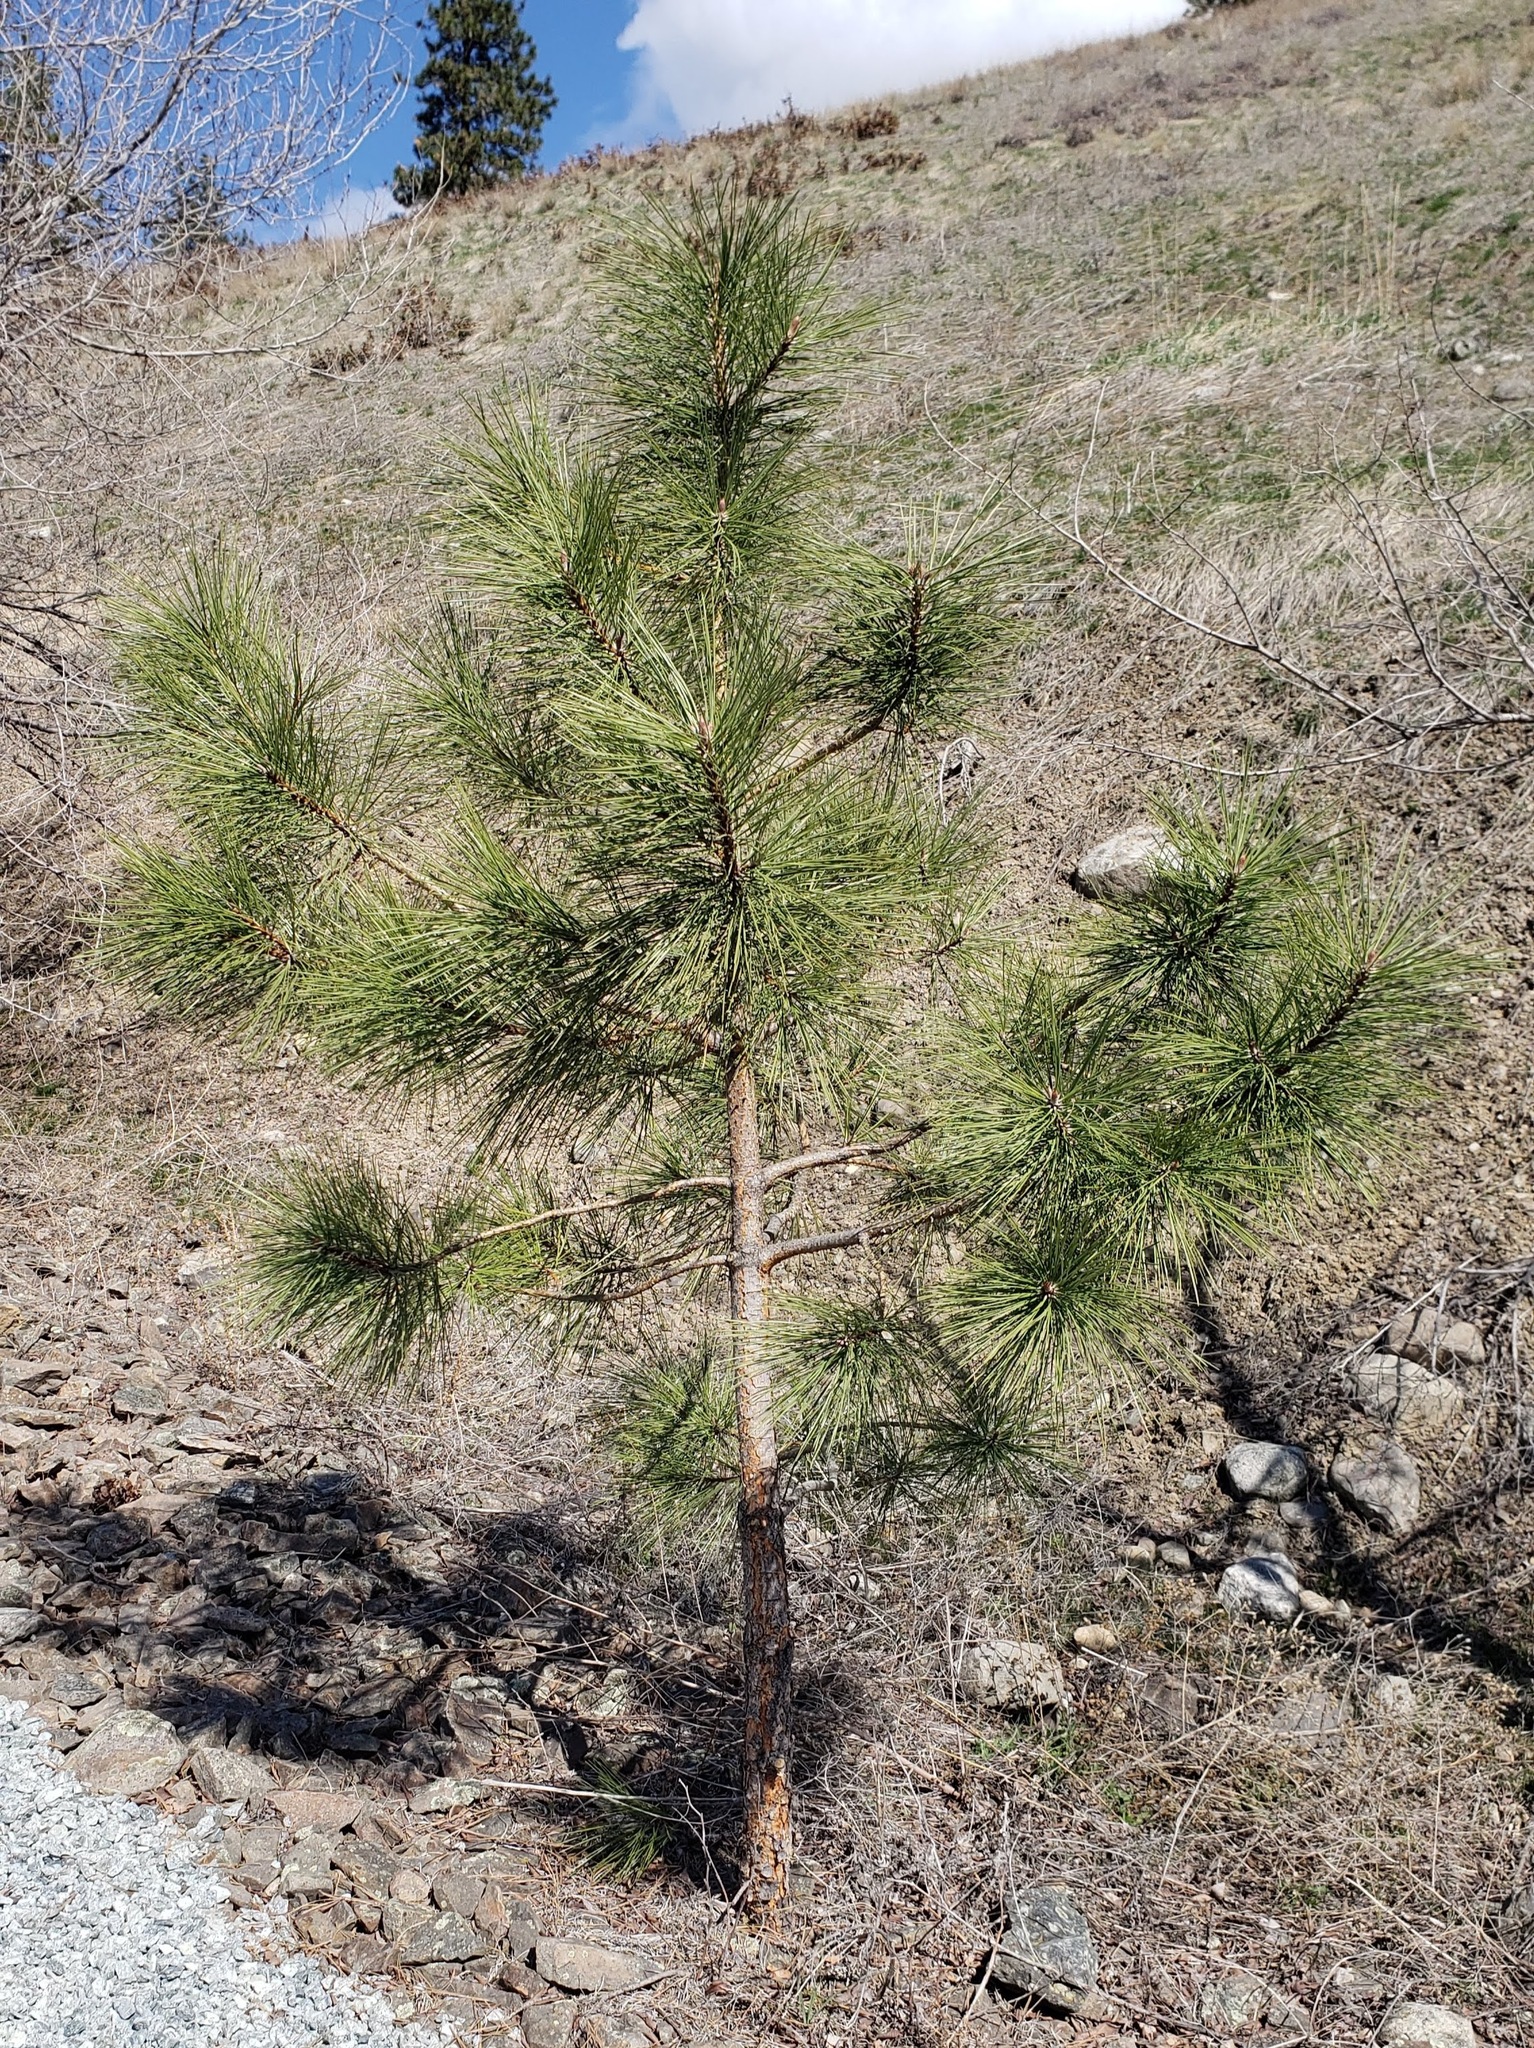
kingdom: Plantae
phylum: Tracheophyta
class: Pinopsida
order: Pinales
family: Pinaceae
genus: Pinus
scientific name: Pinus ponderosa
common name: Western yellow-pine
